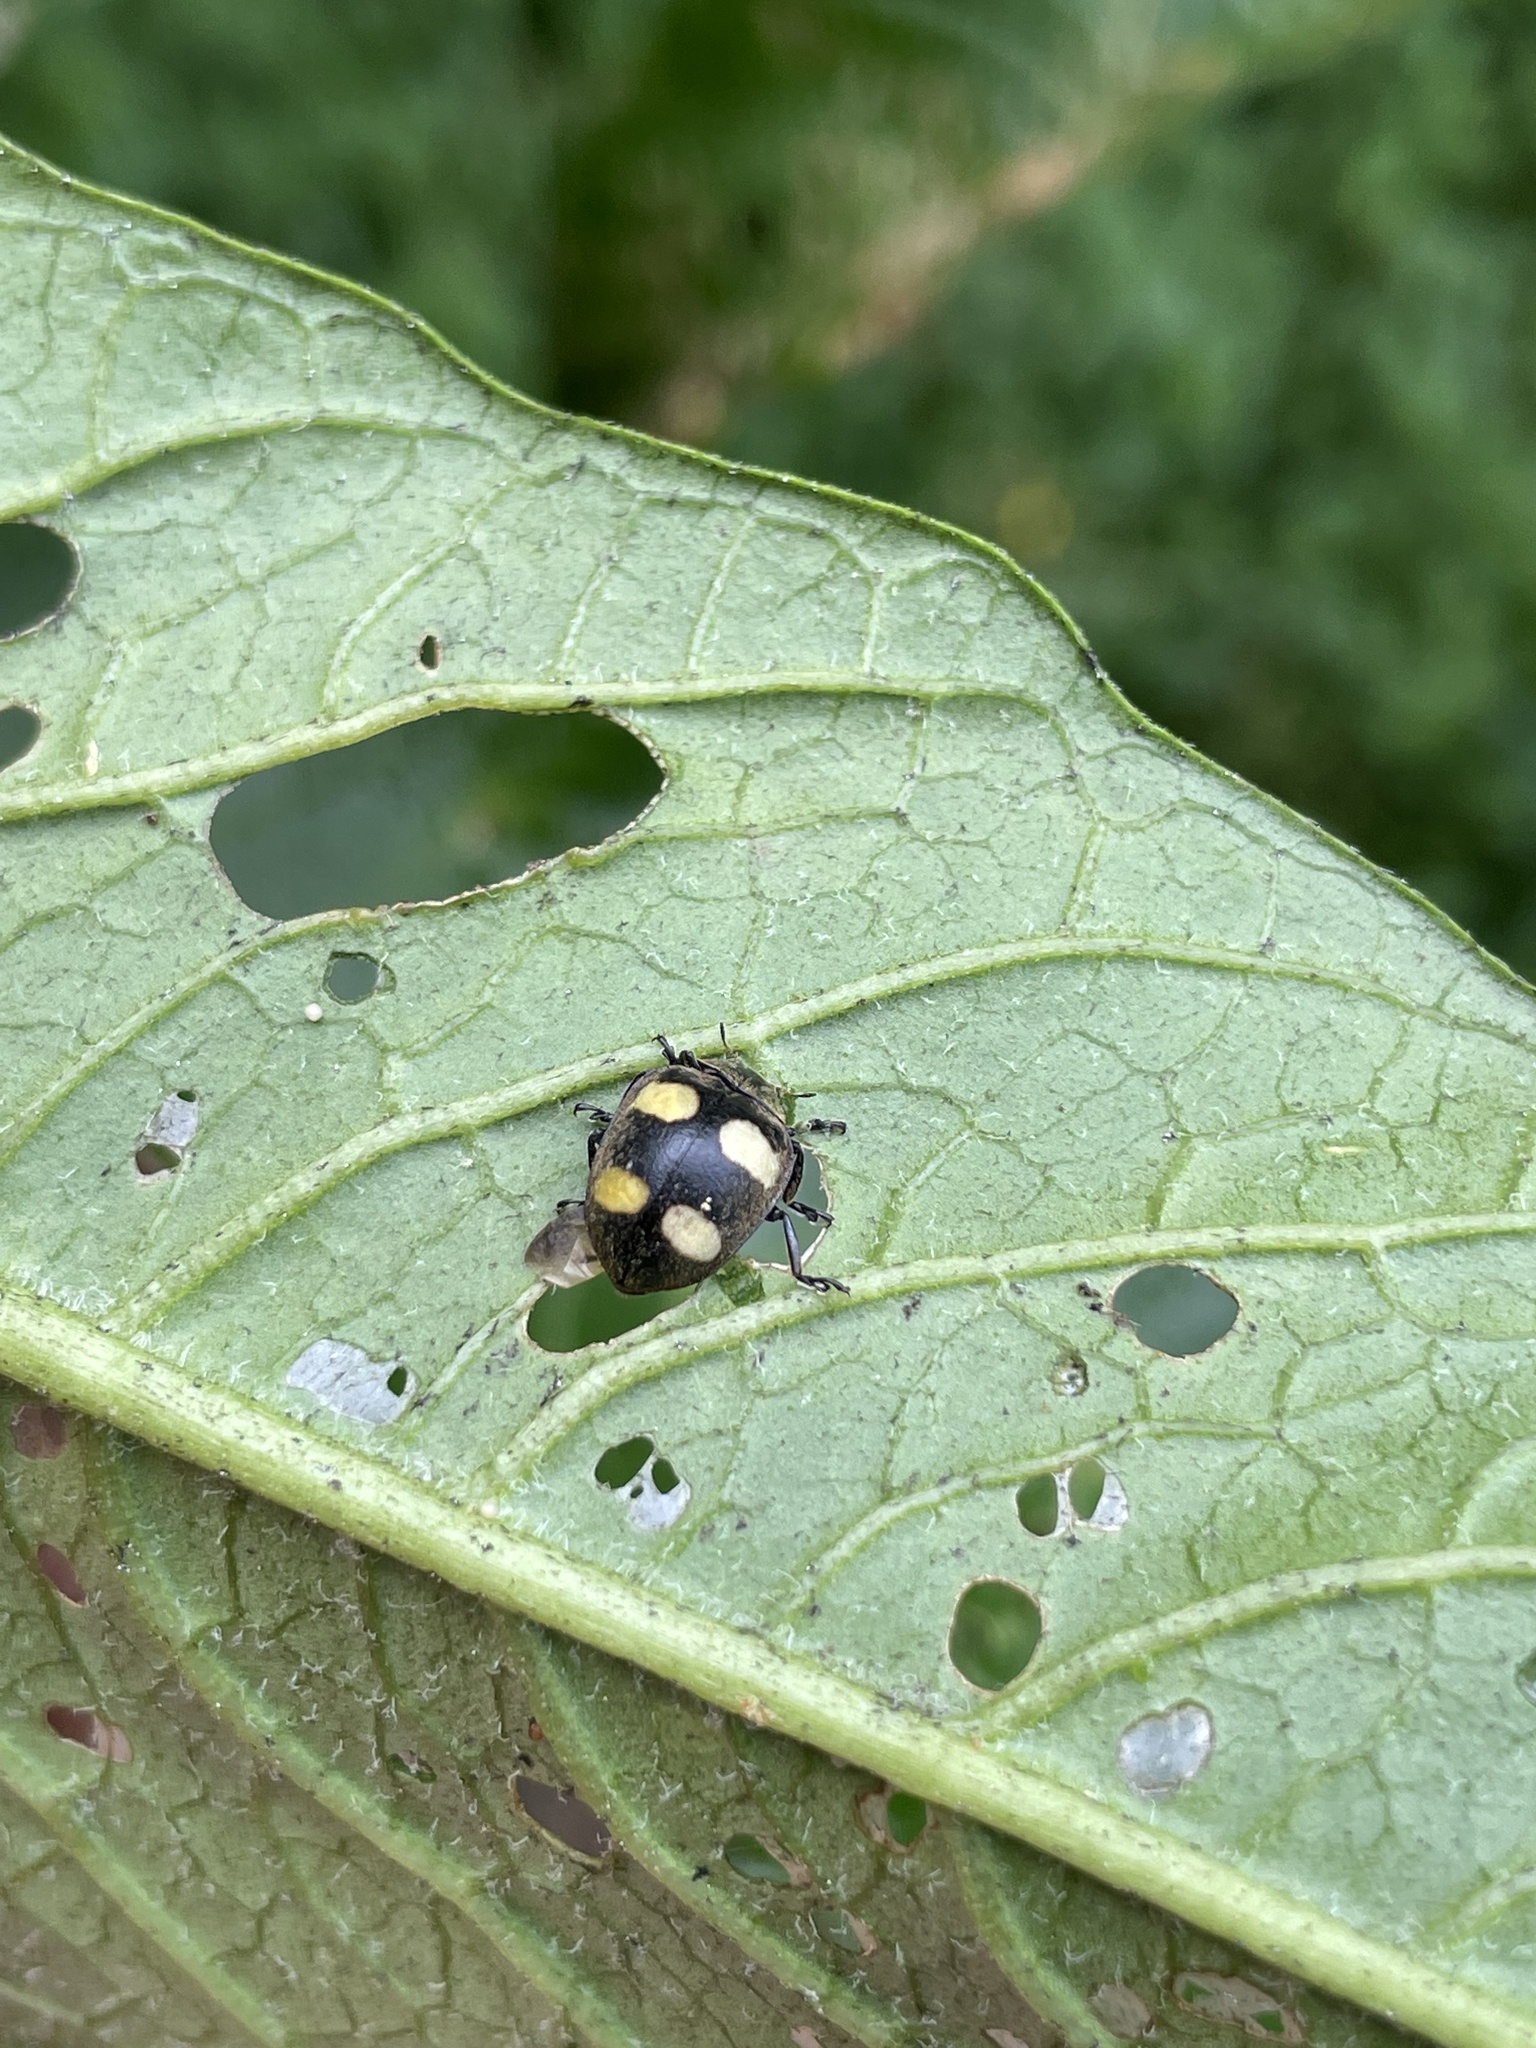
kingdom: Animalia
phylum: Arthropoda
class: Insecta
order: Coleoptera
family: Coccinellidae
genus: Epilachna
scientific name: Epilachna
